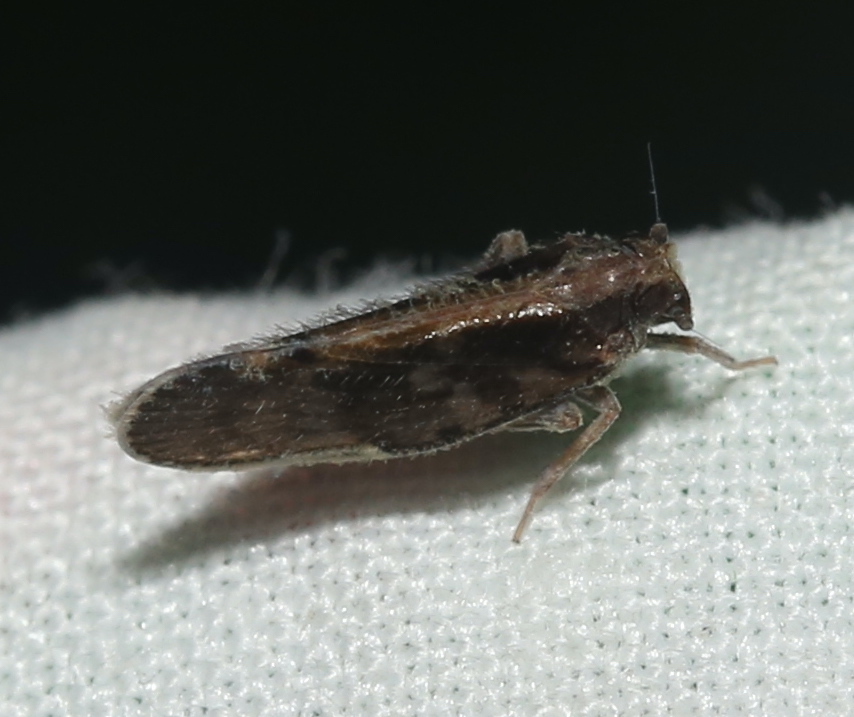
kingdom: Animalia
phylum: Arthropoda
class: Insecta
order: Hemiptera
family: Cixiidae
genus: Pintalia
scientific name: Pintalia vibex
